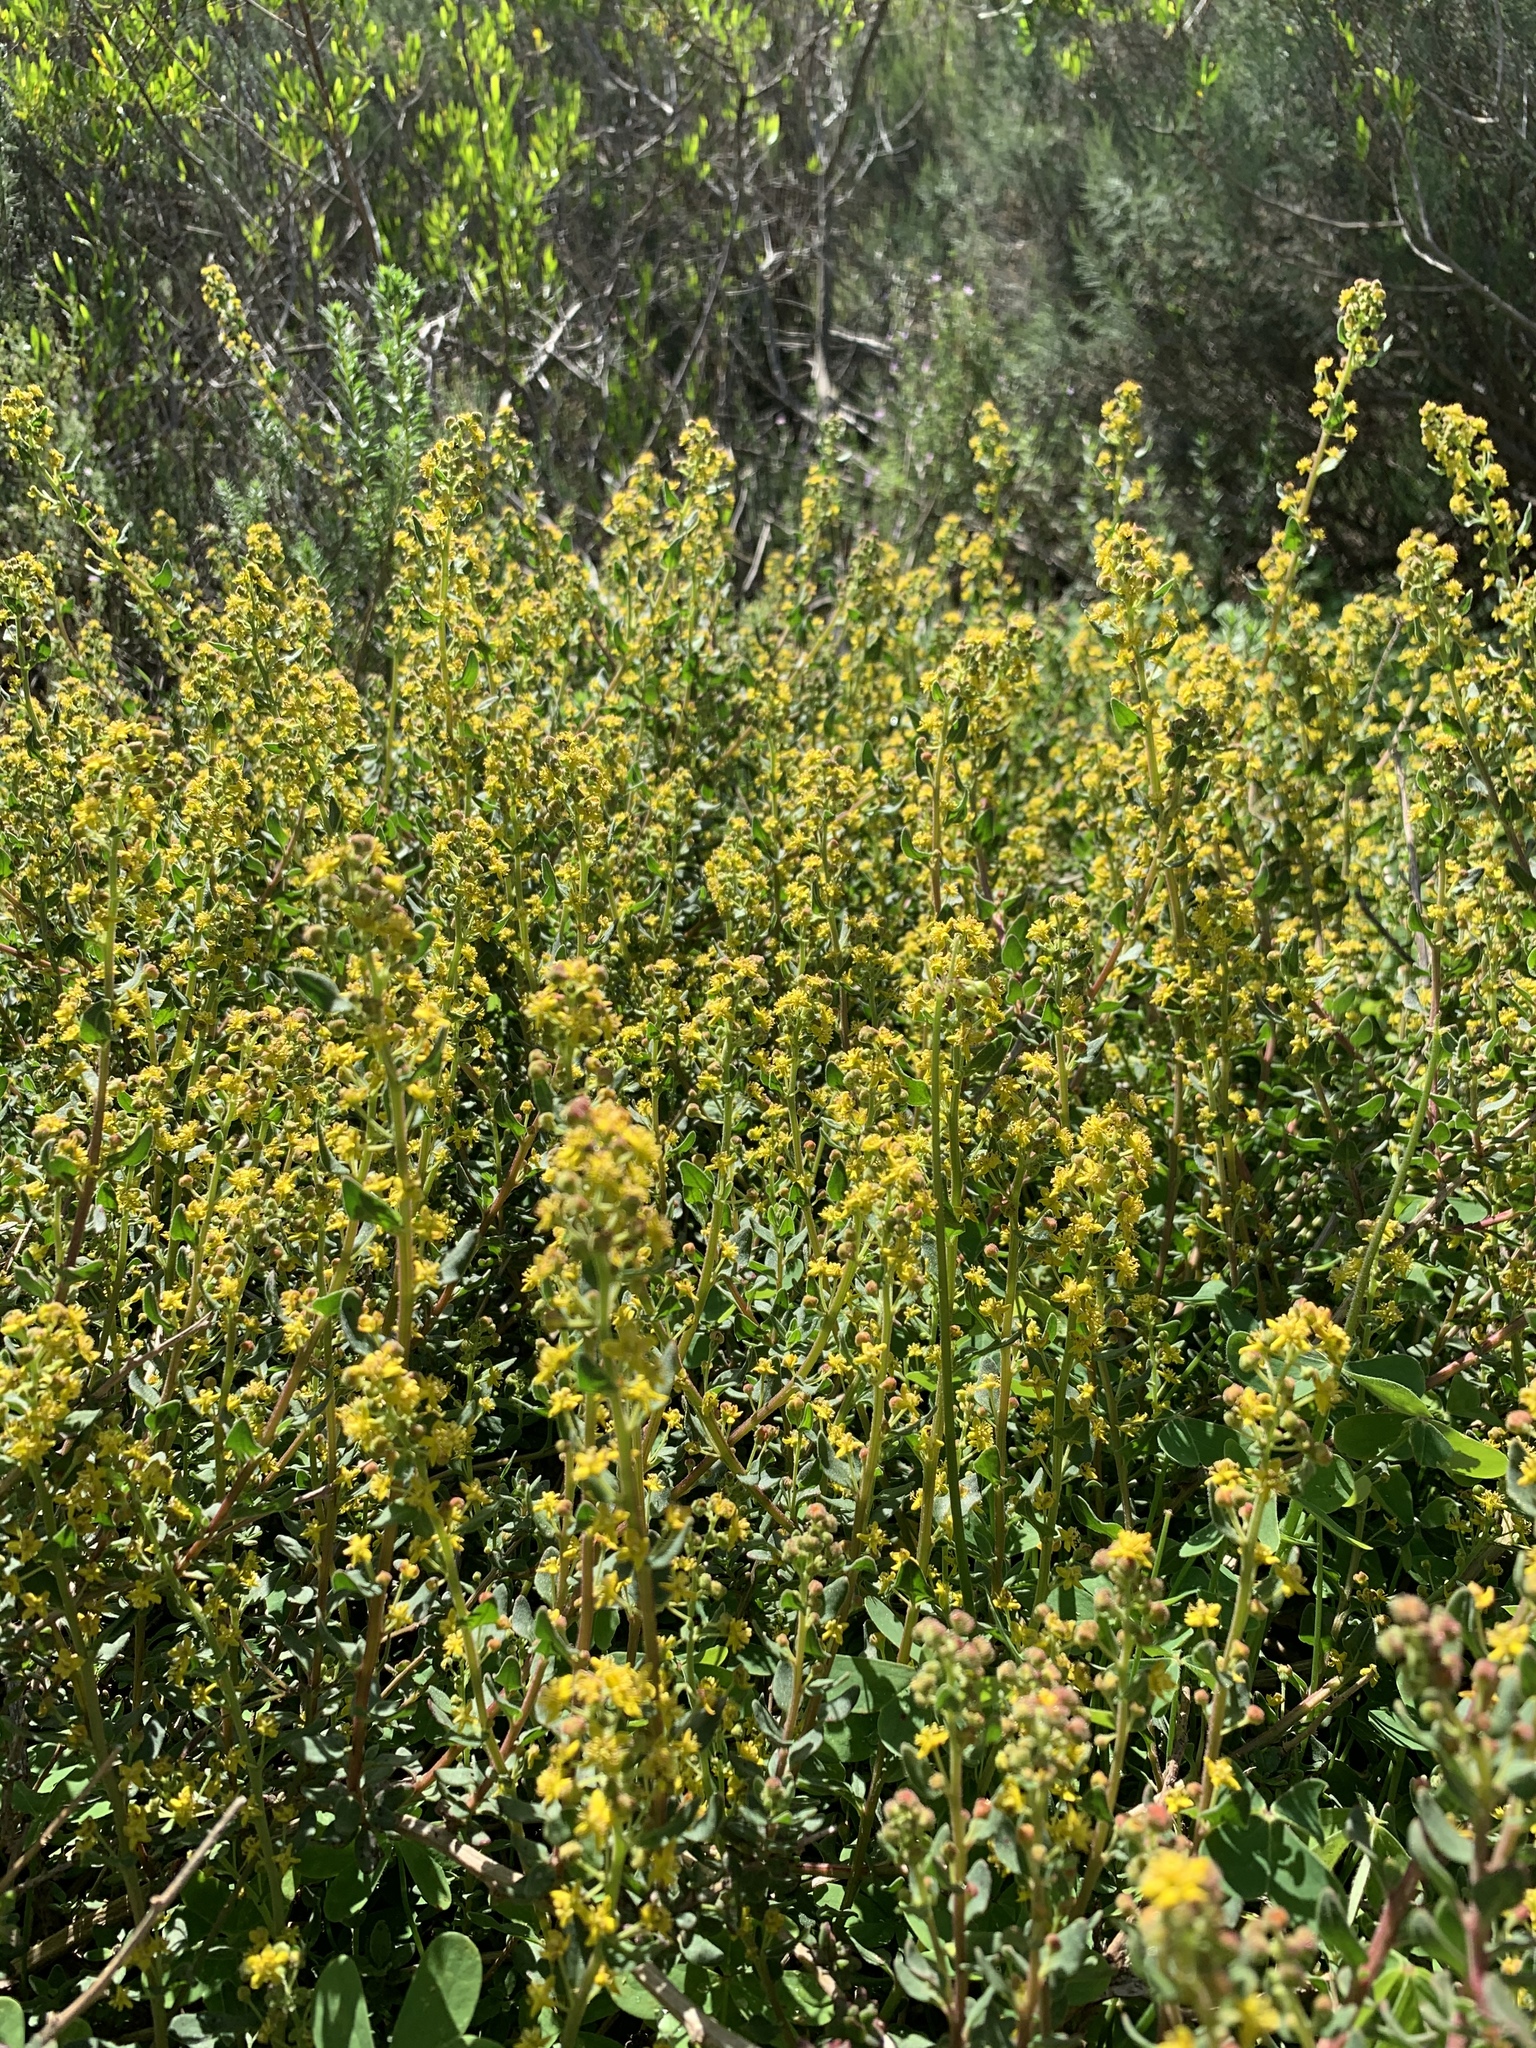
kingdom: Plantae
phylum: Tracheophyta
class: Magnoliopsida
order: Caryophyllales
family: Aizoaceae
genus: Tetragonia
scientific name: Tetragonia fruticosa
